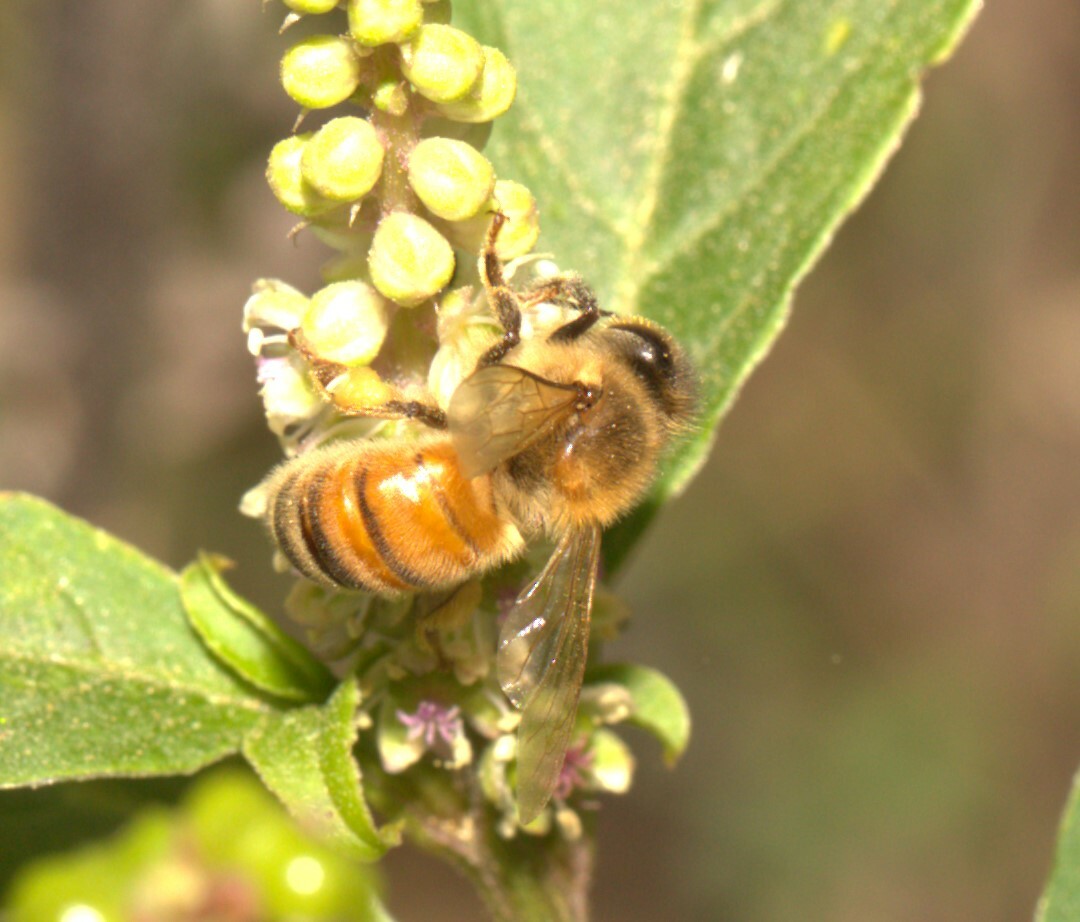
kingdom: Animalia
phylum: Arthropoda
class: Insecta
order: Hymenoptera
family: Apidae
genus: Apis
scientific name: Apis mellifera
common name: Honey bee
